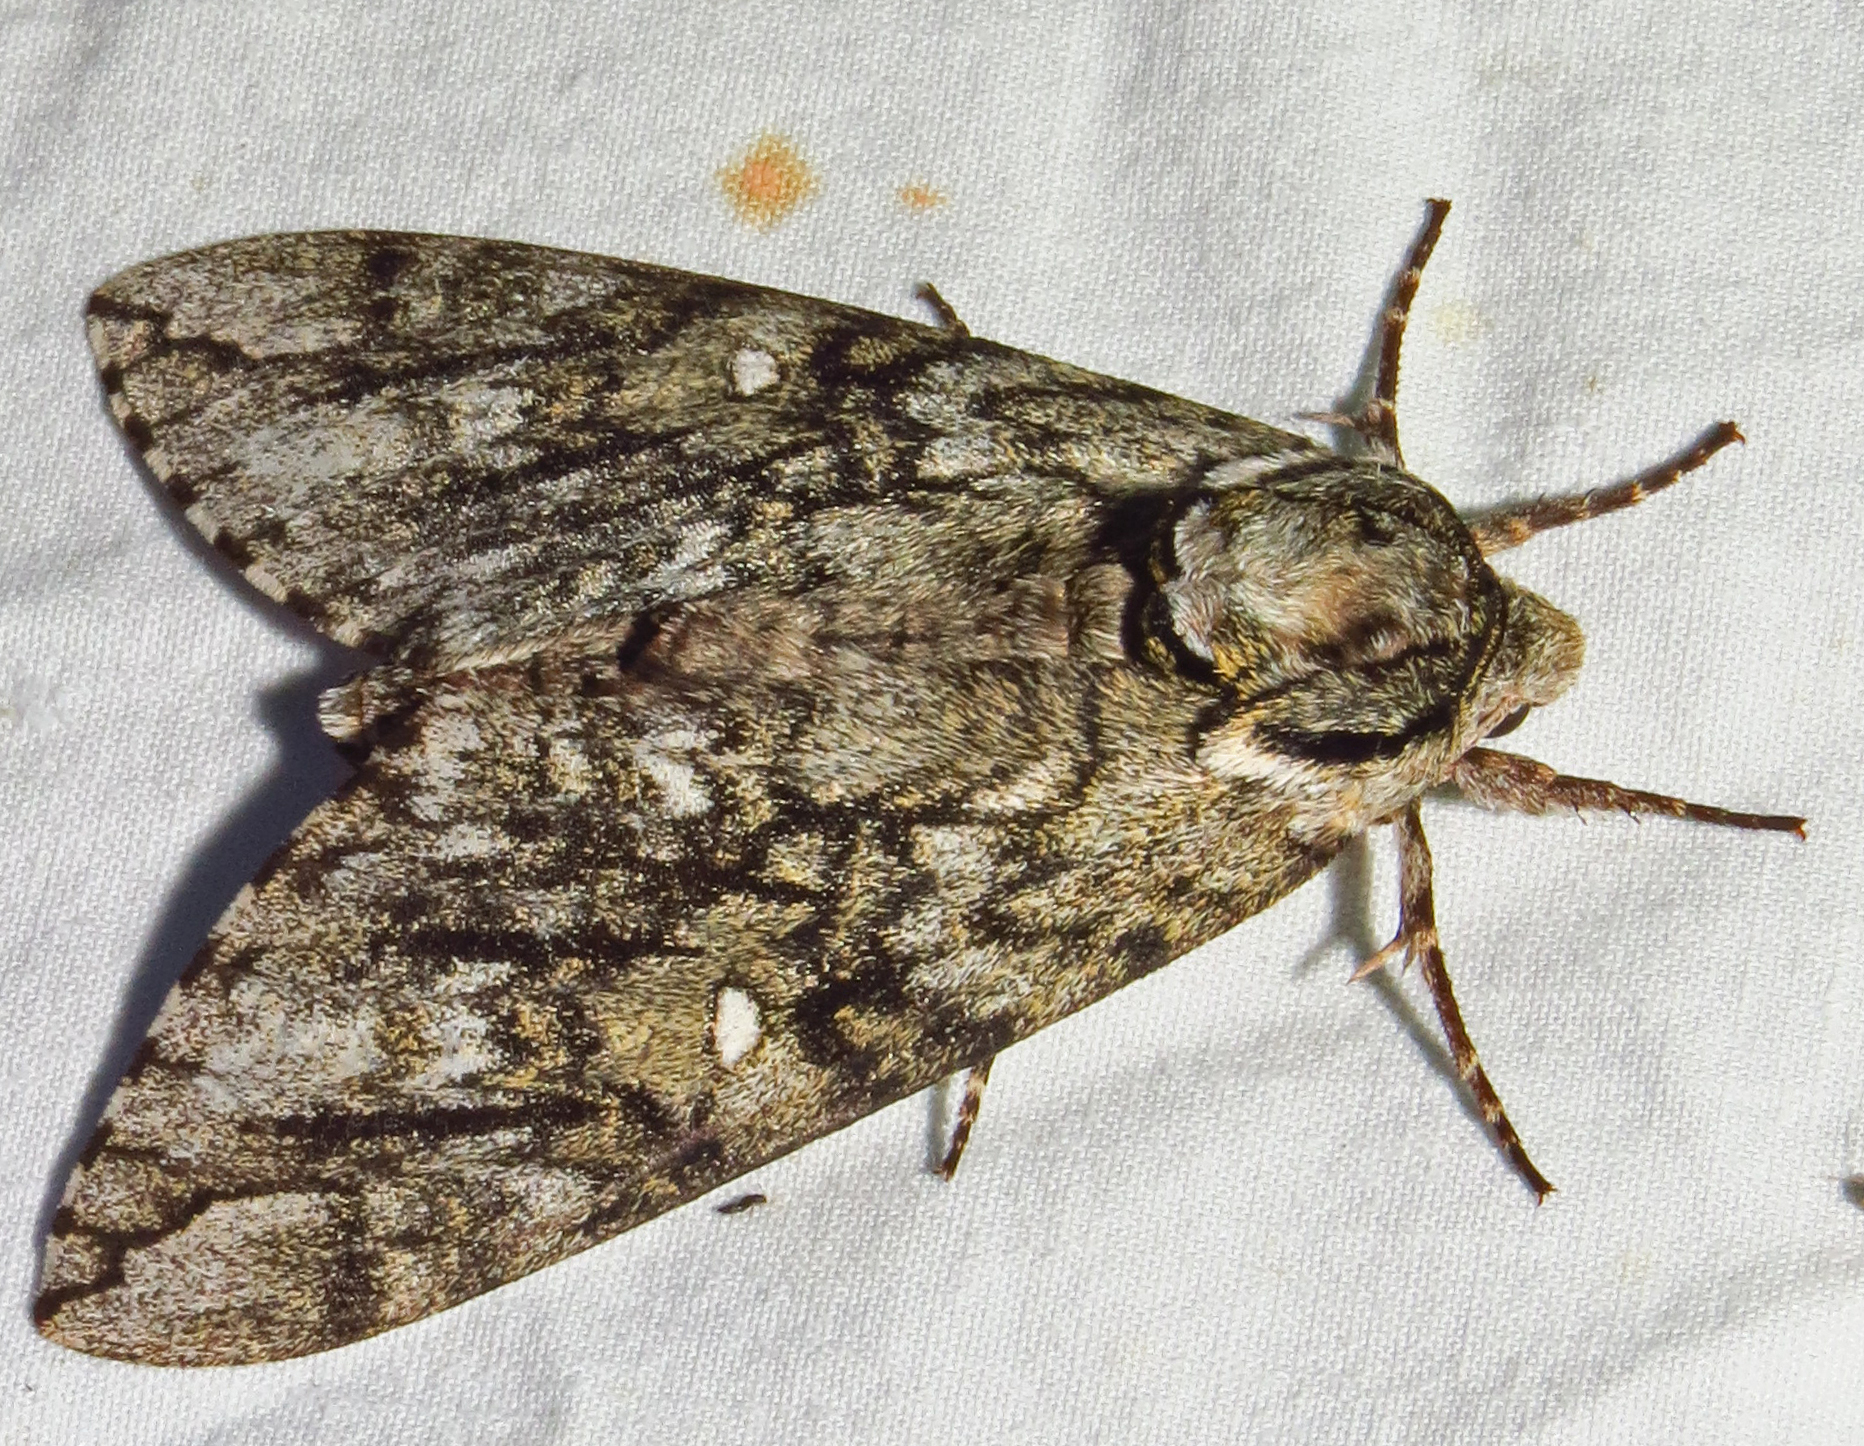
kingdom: Animalia
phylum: Arthropoda
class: Insecta
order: Lepidoptera
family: Sphingidae
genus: Ceratomia
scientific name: Ceratomia undulosa
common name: Waved sphinx
